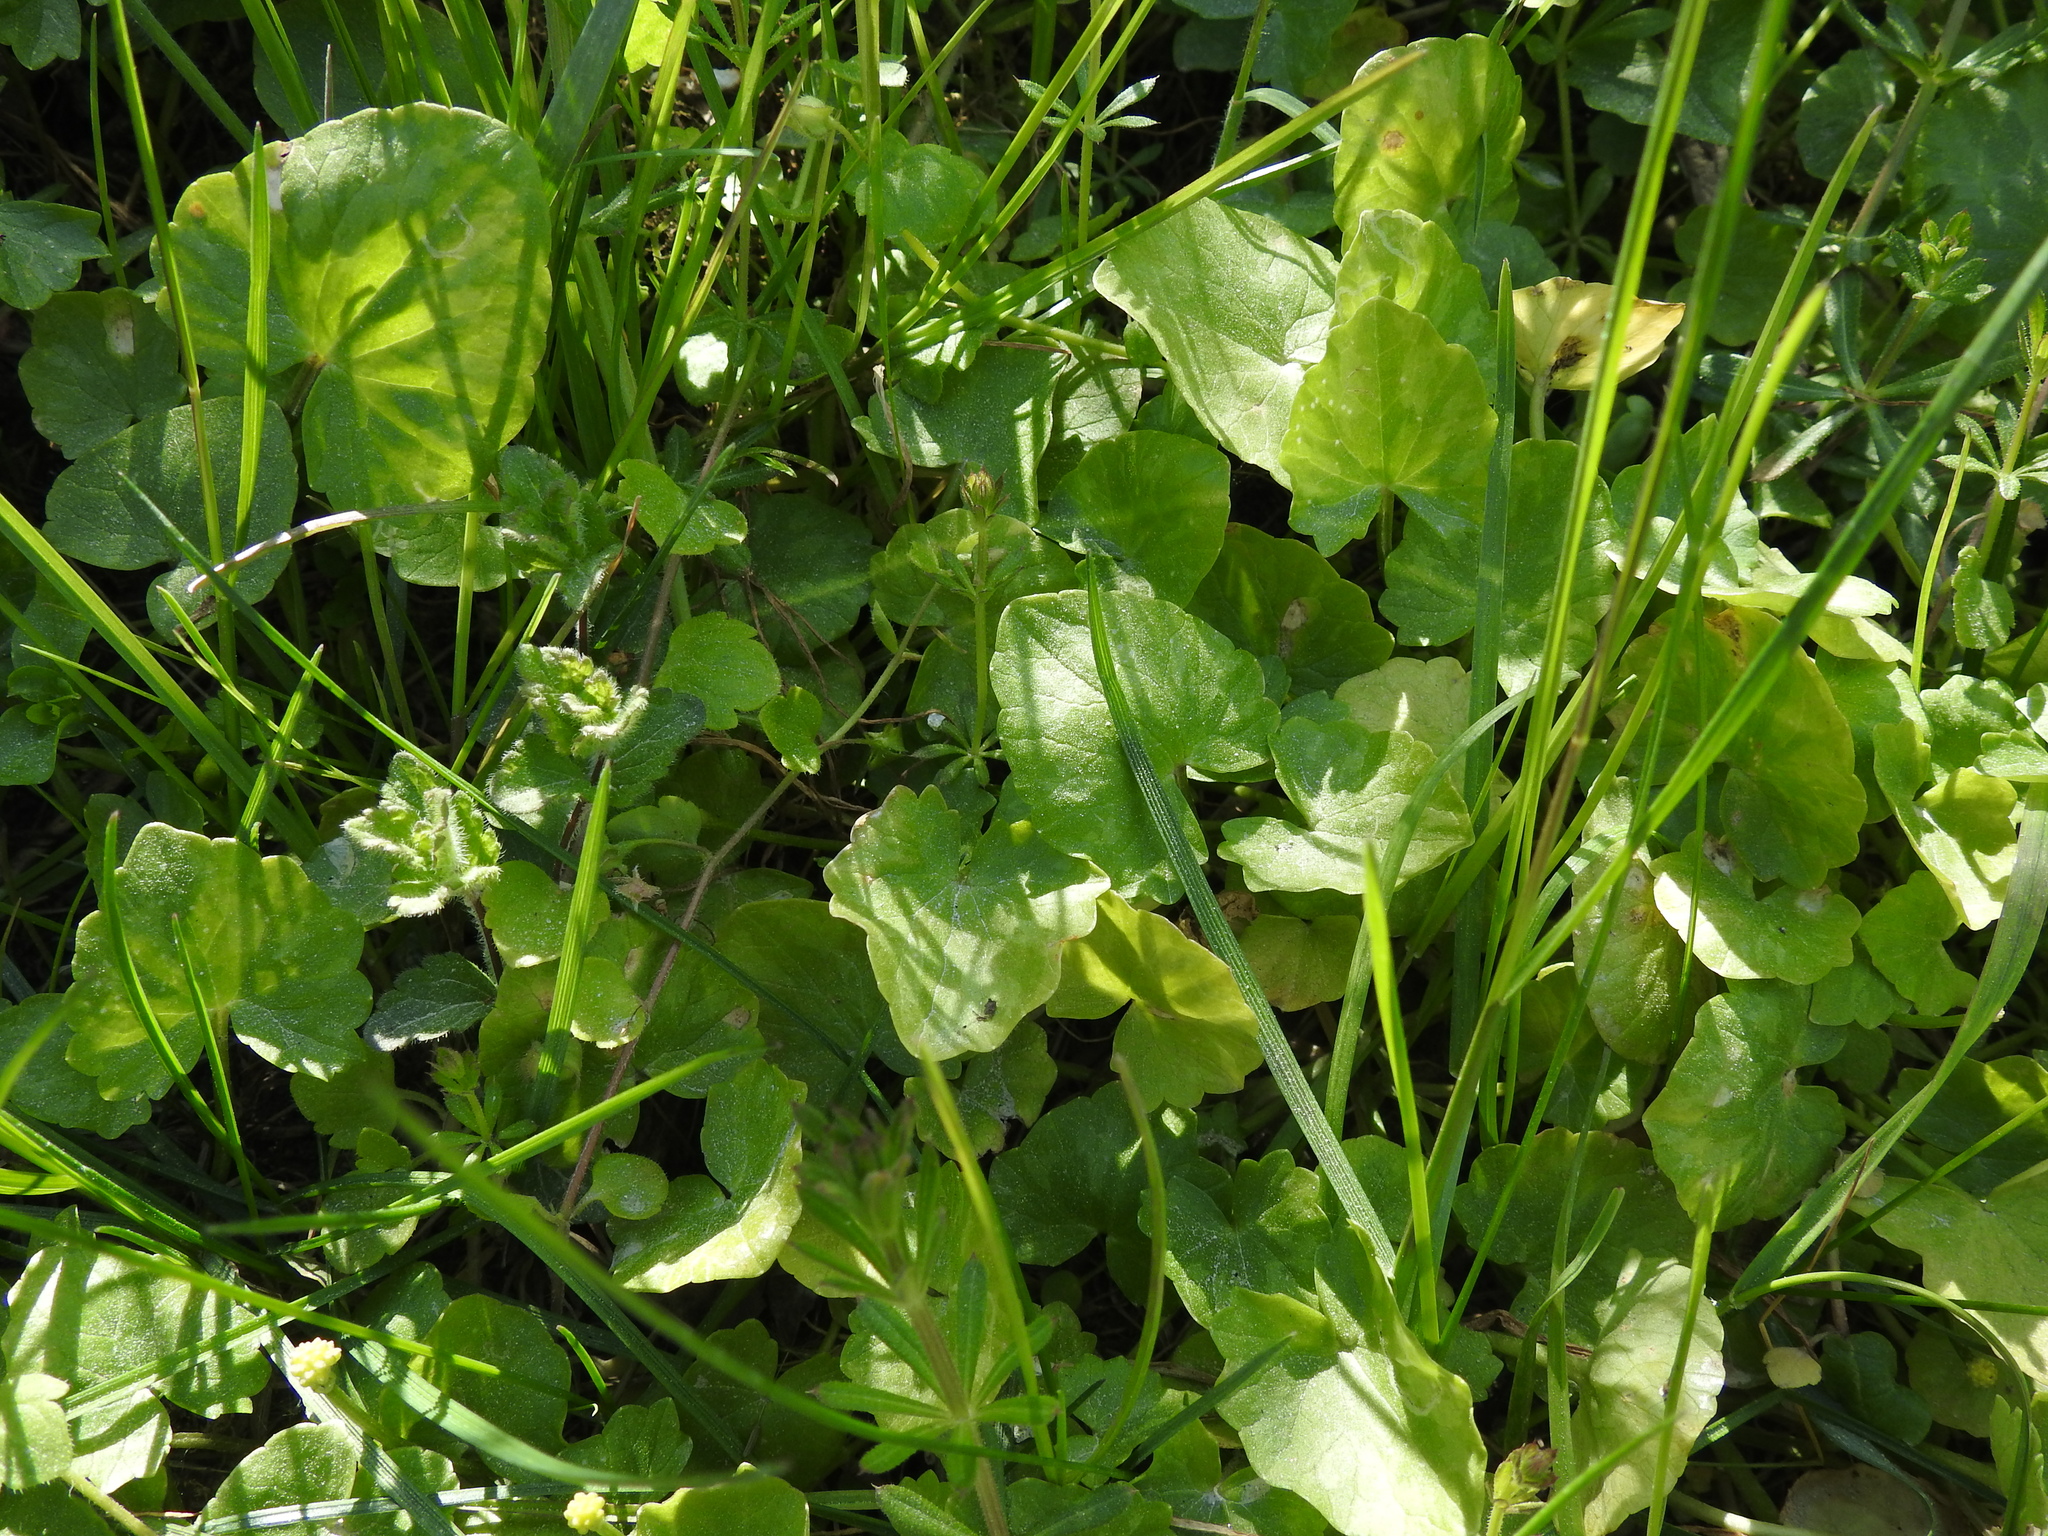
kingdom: Plantae
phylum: Tracheophyta
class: Magnoliopsida
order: Ranunculales
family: Ranunculaceae
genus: Ficaria
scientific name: Ficaria verna
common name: Lesser celandine
